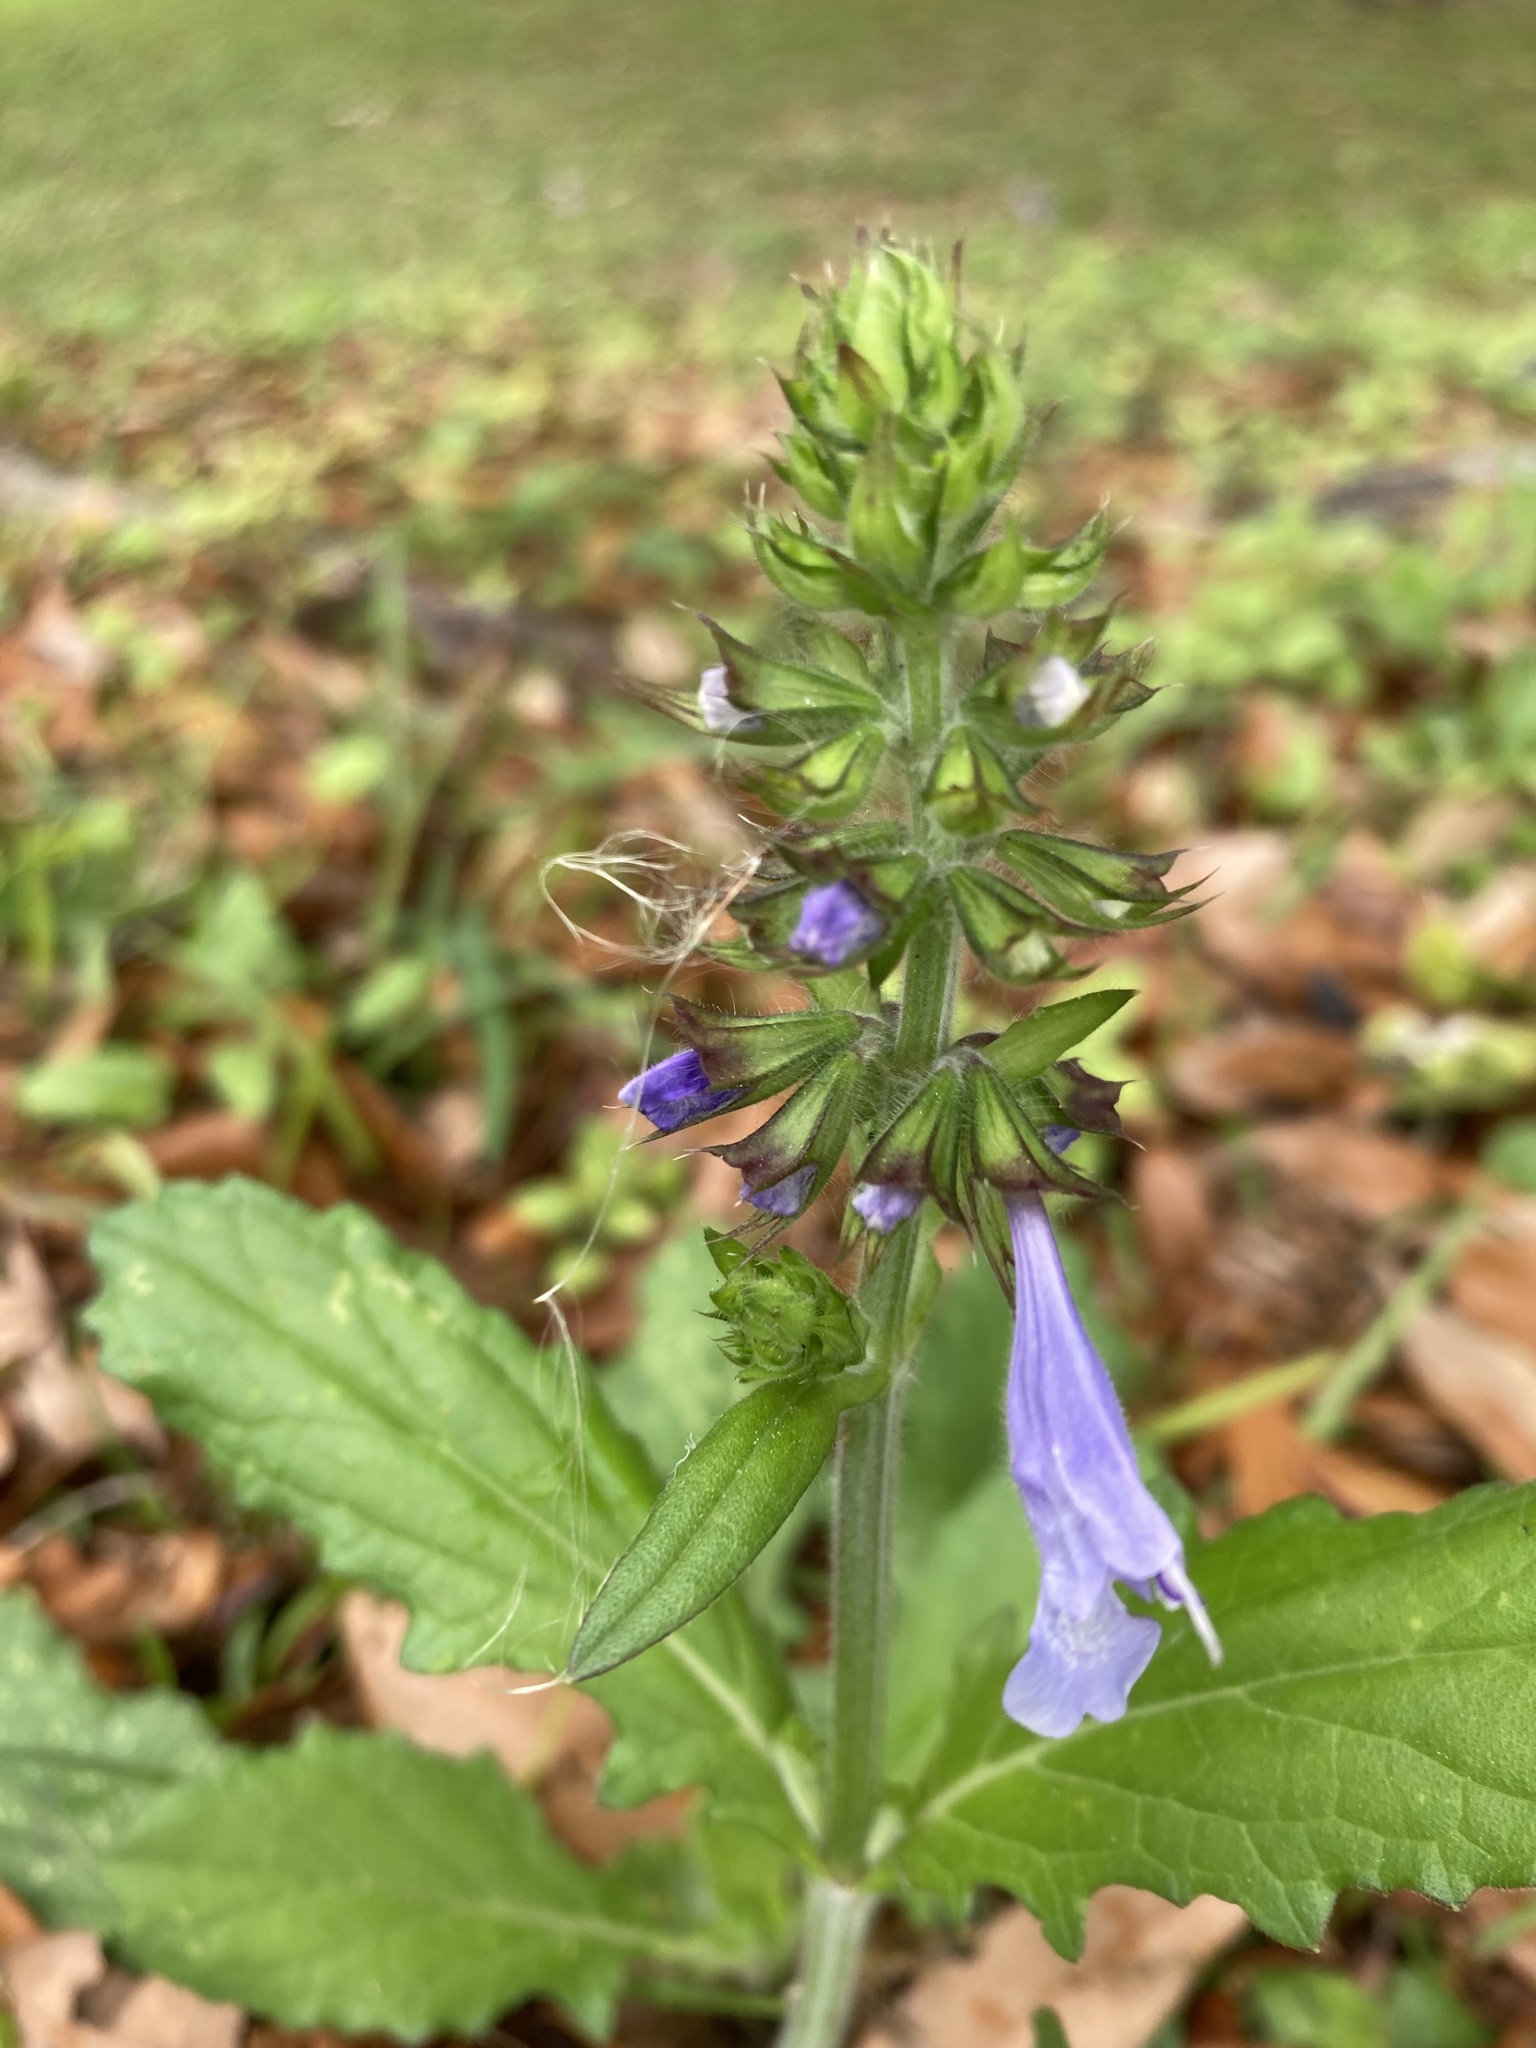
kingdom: Plantae
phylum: Tracheophyta
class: Magnoliopsida
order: Lamiales
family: Lamiaceae
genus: Salvia
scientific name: Salvia lyrata
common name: Cancerweed
